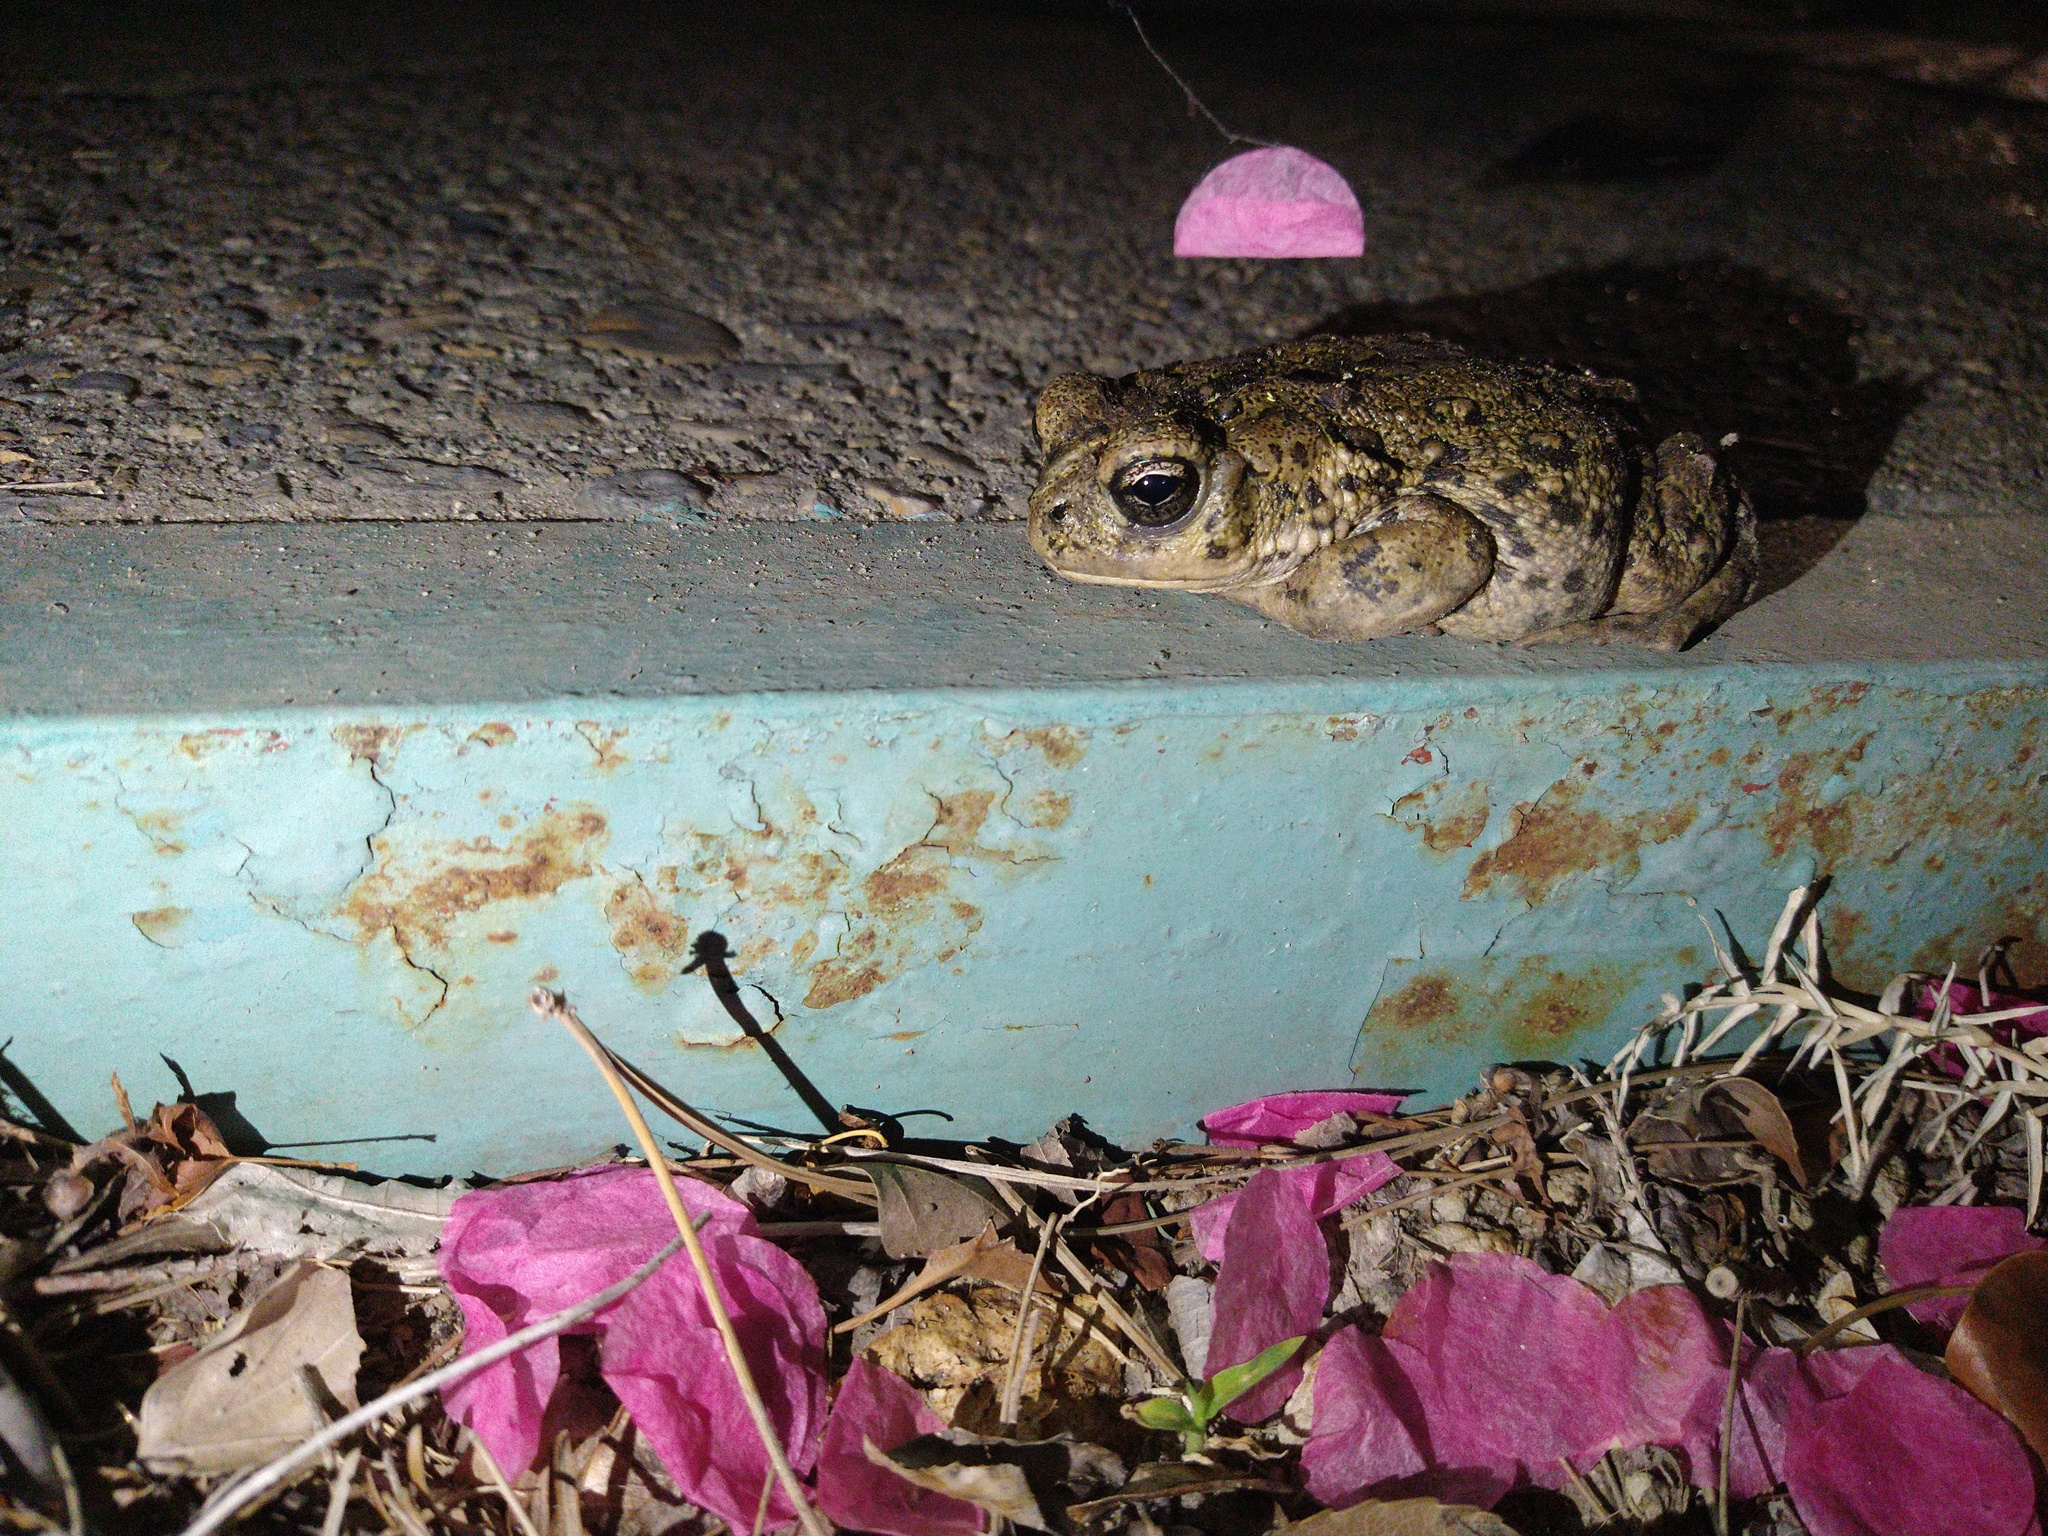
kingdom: Animalia
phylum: Chordata
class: Amphibia
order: Anura
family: Bufonidae
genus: Anaxyrus
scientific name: Anaxyrus boreas
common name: Western toad
